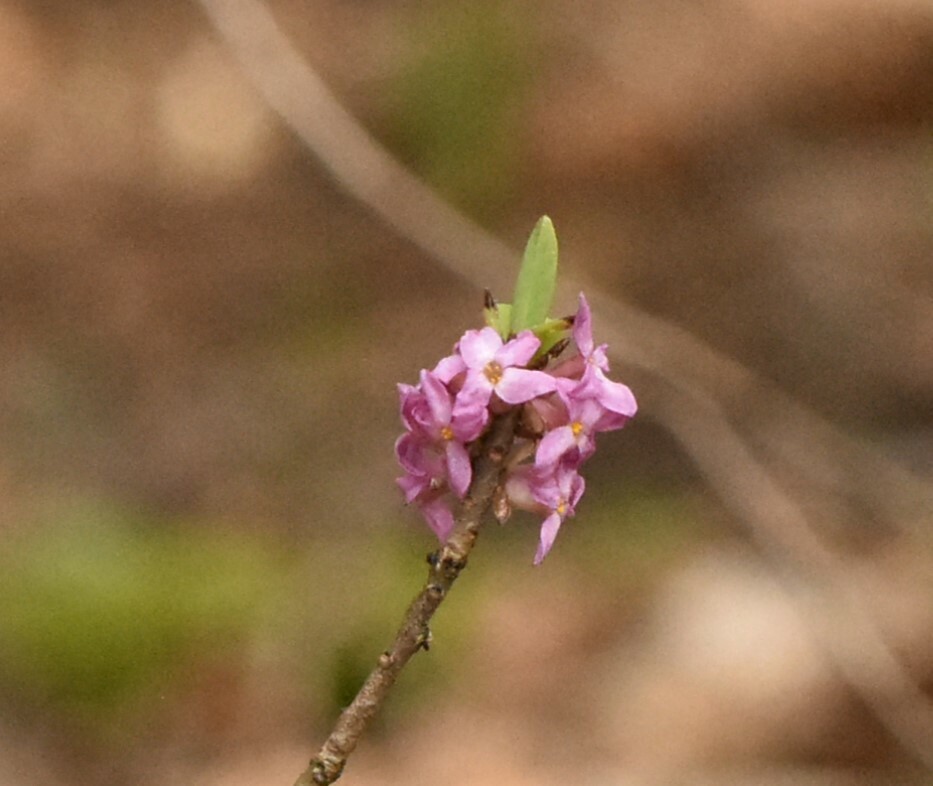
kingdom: Plantae
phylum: Tracheophyta
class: Magnoliopsida
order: Malvales
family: Thymelaeaceae
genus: Daphne
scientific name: Daphne mezereum
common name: Mezereon
